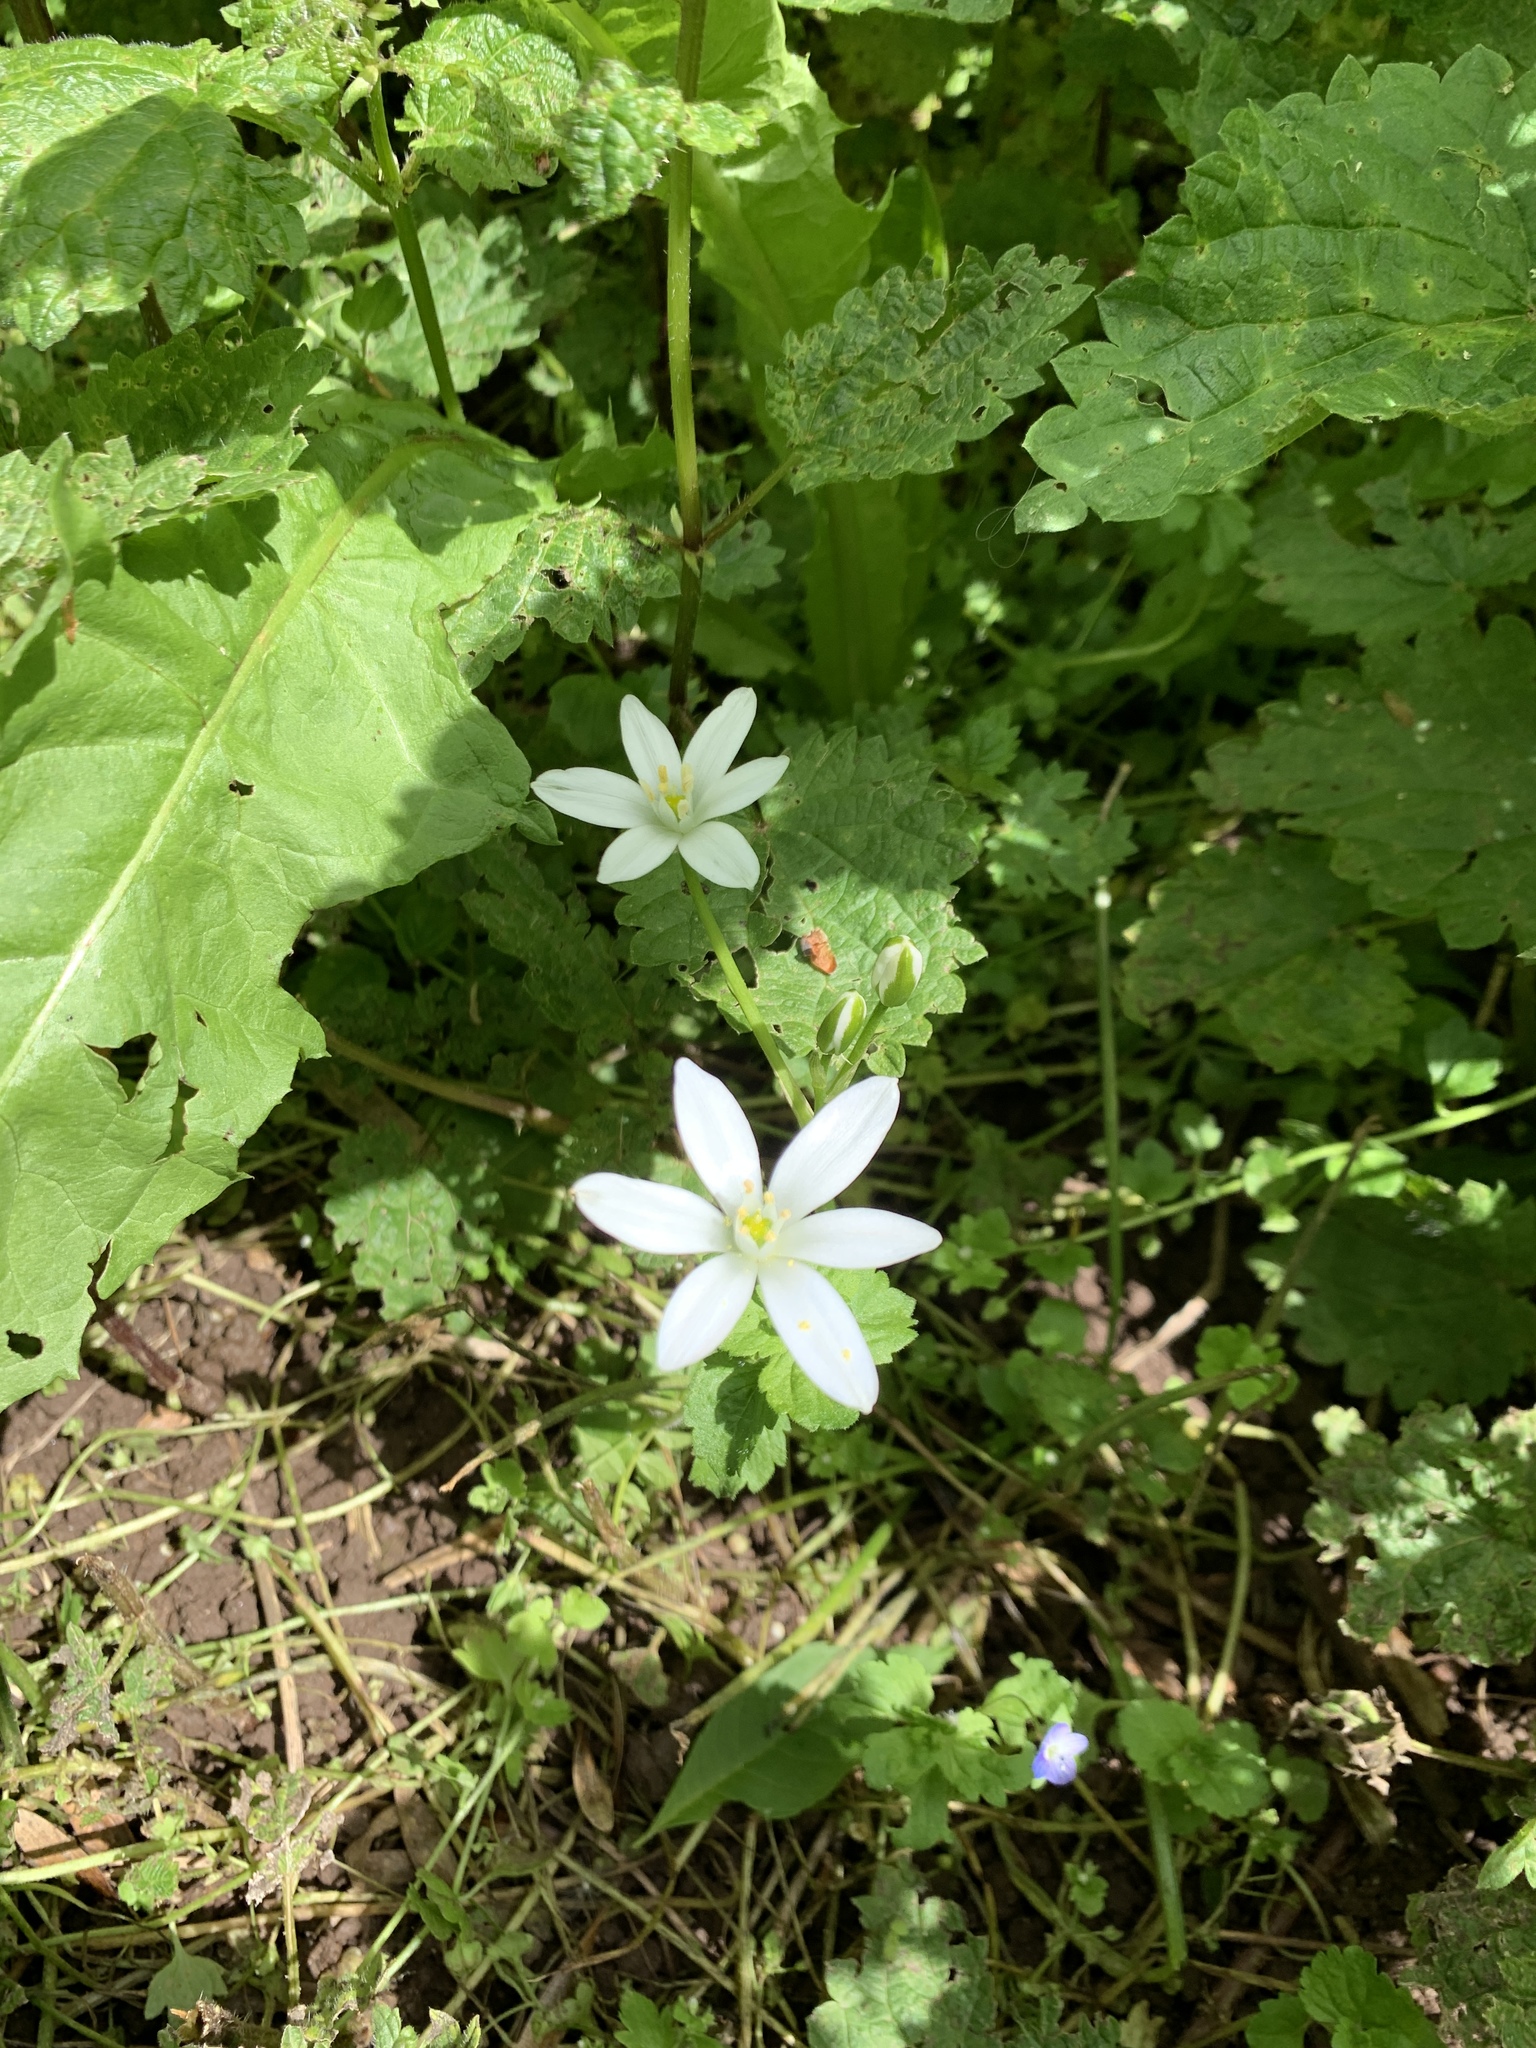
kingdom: Plantae
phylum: Tracheophyta
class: Liliopsida
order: Asparagales
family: Asparagaceae
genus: Ornithogalum
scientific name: Ornithogalum umbellatum
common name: Garden star-of-bethlehem
